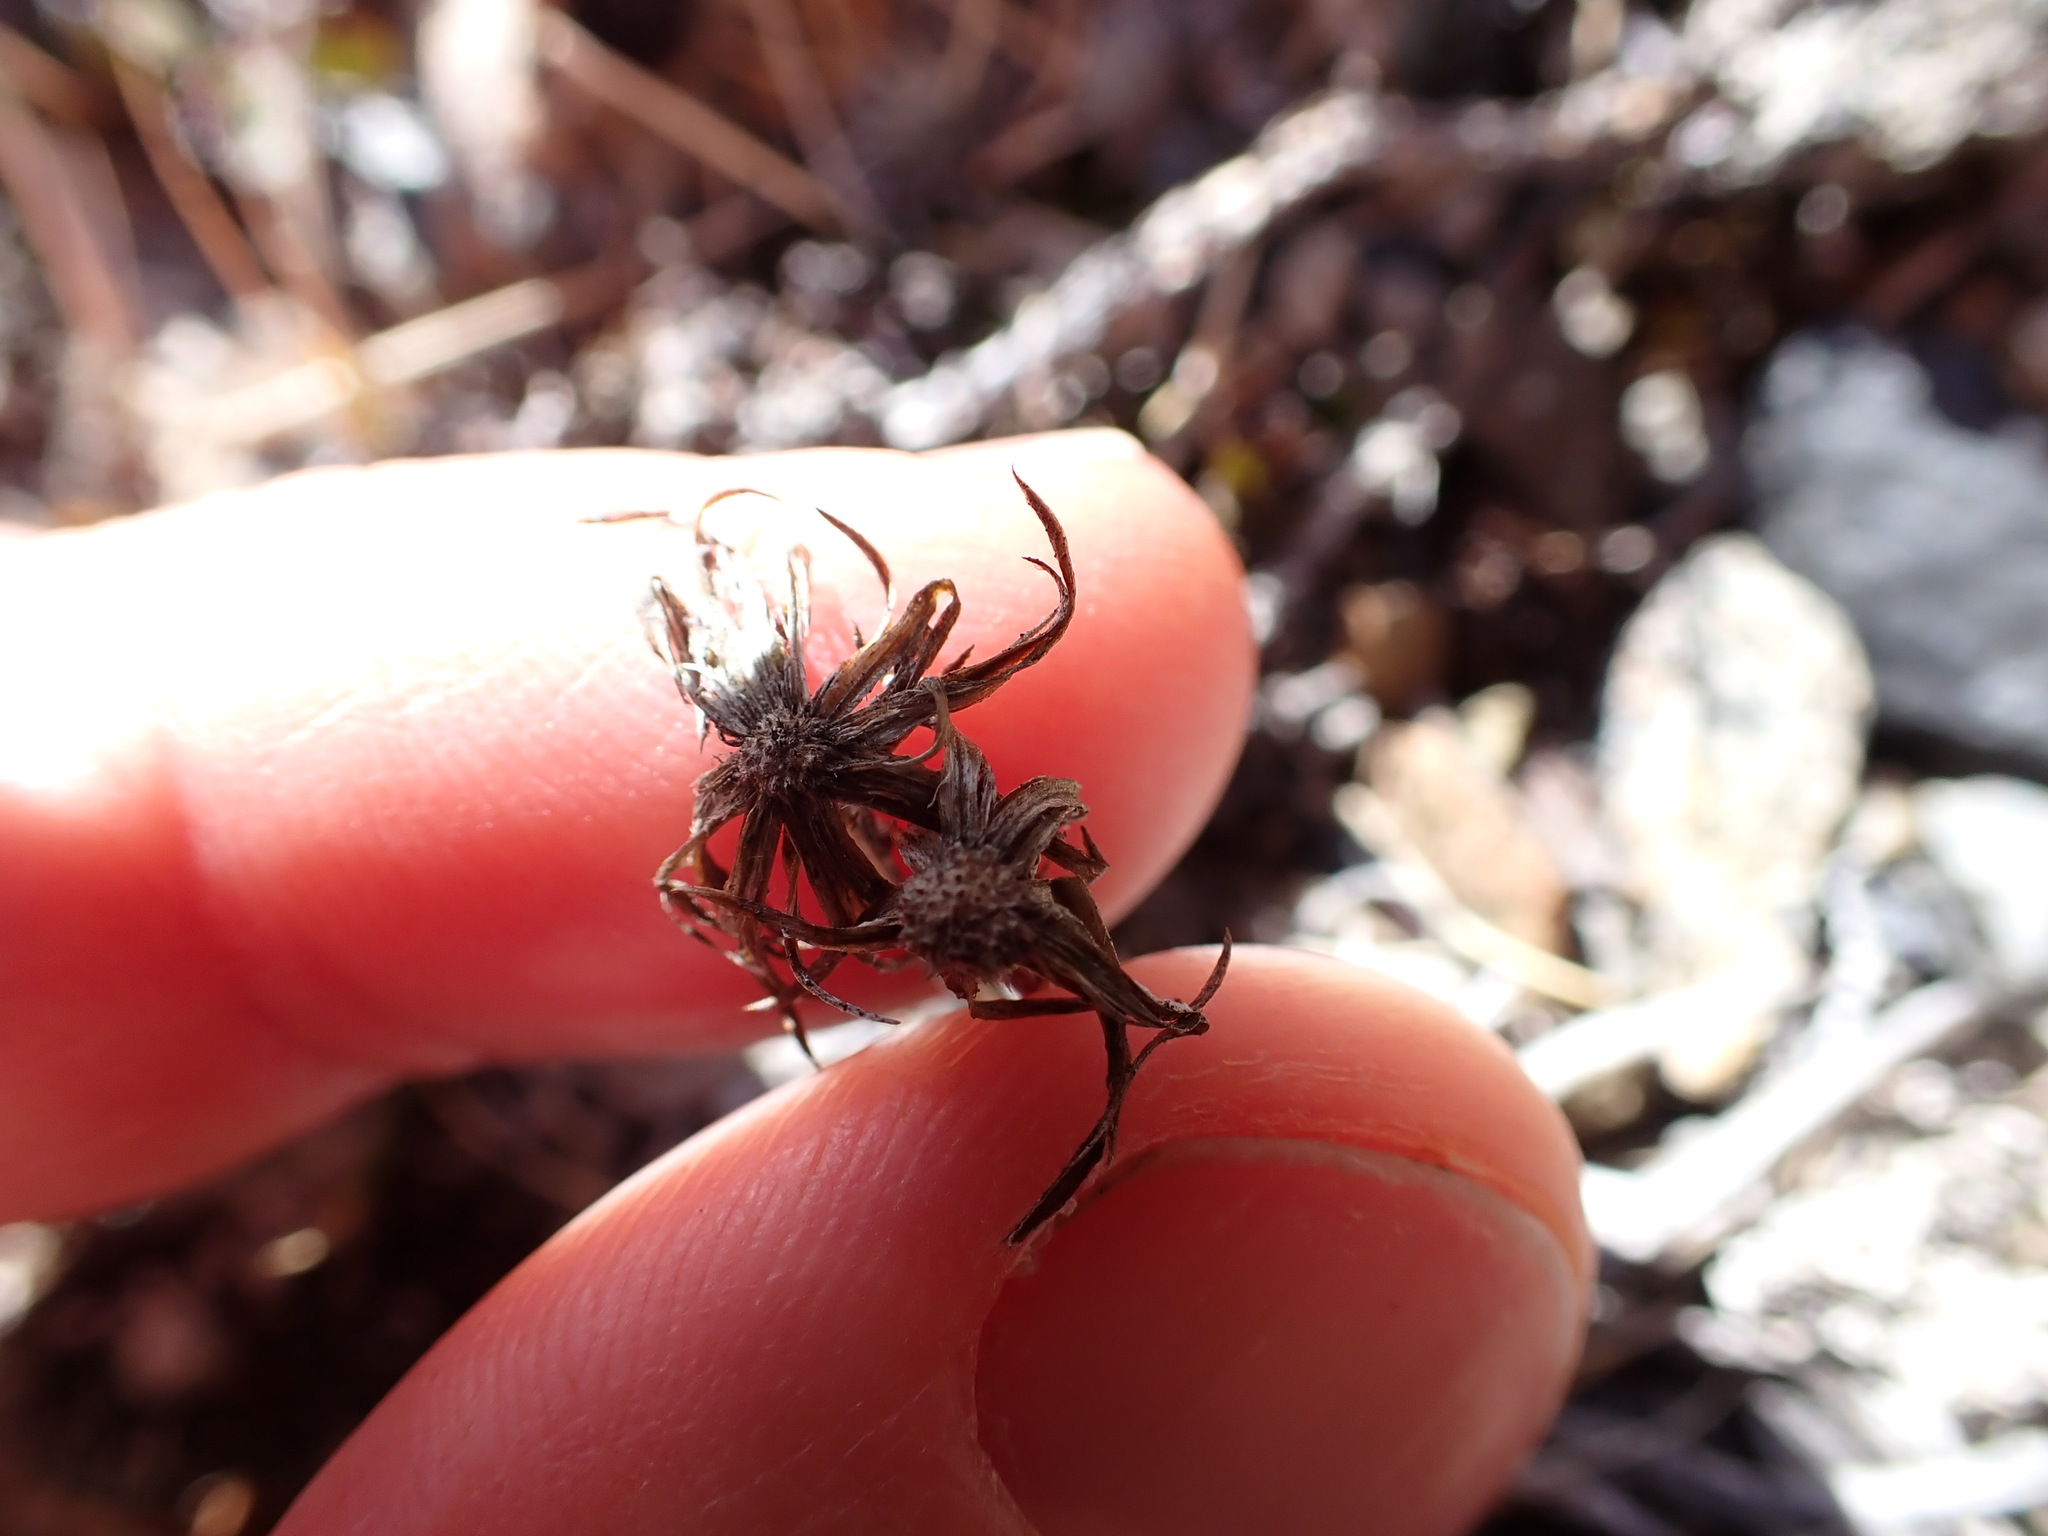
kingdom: Plantae
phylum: Tracheophyta
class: Magnoliopsida
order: Asterales
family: Asteraceae
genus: Celmisia
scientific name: Celmisia gracilenta
